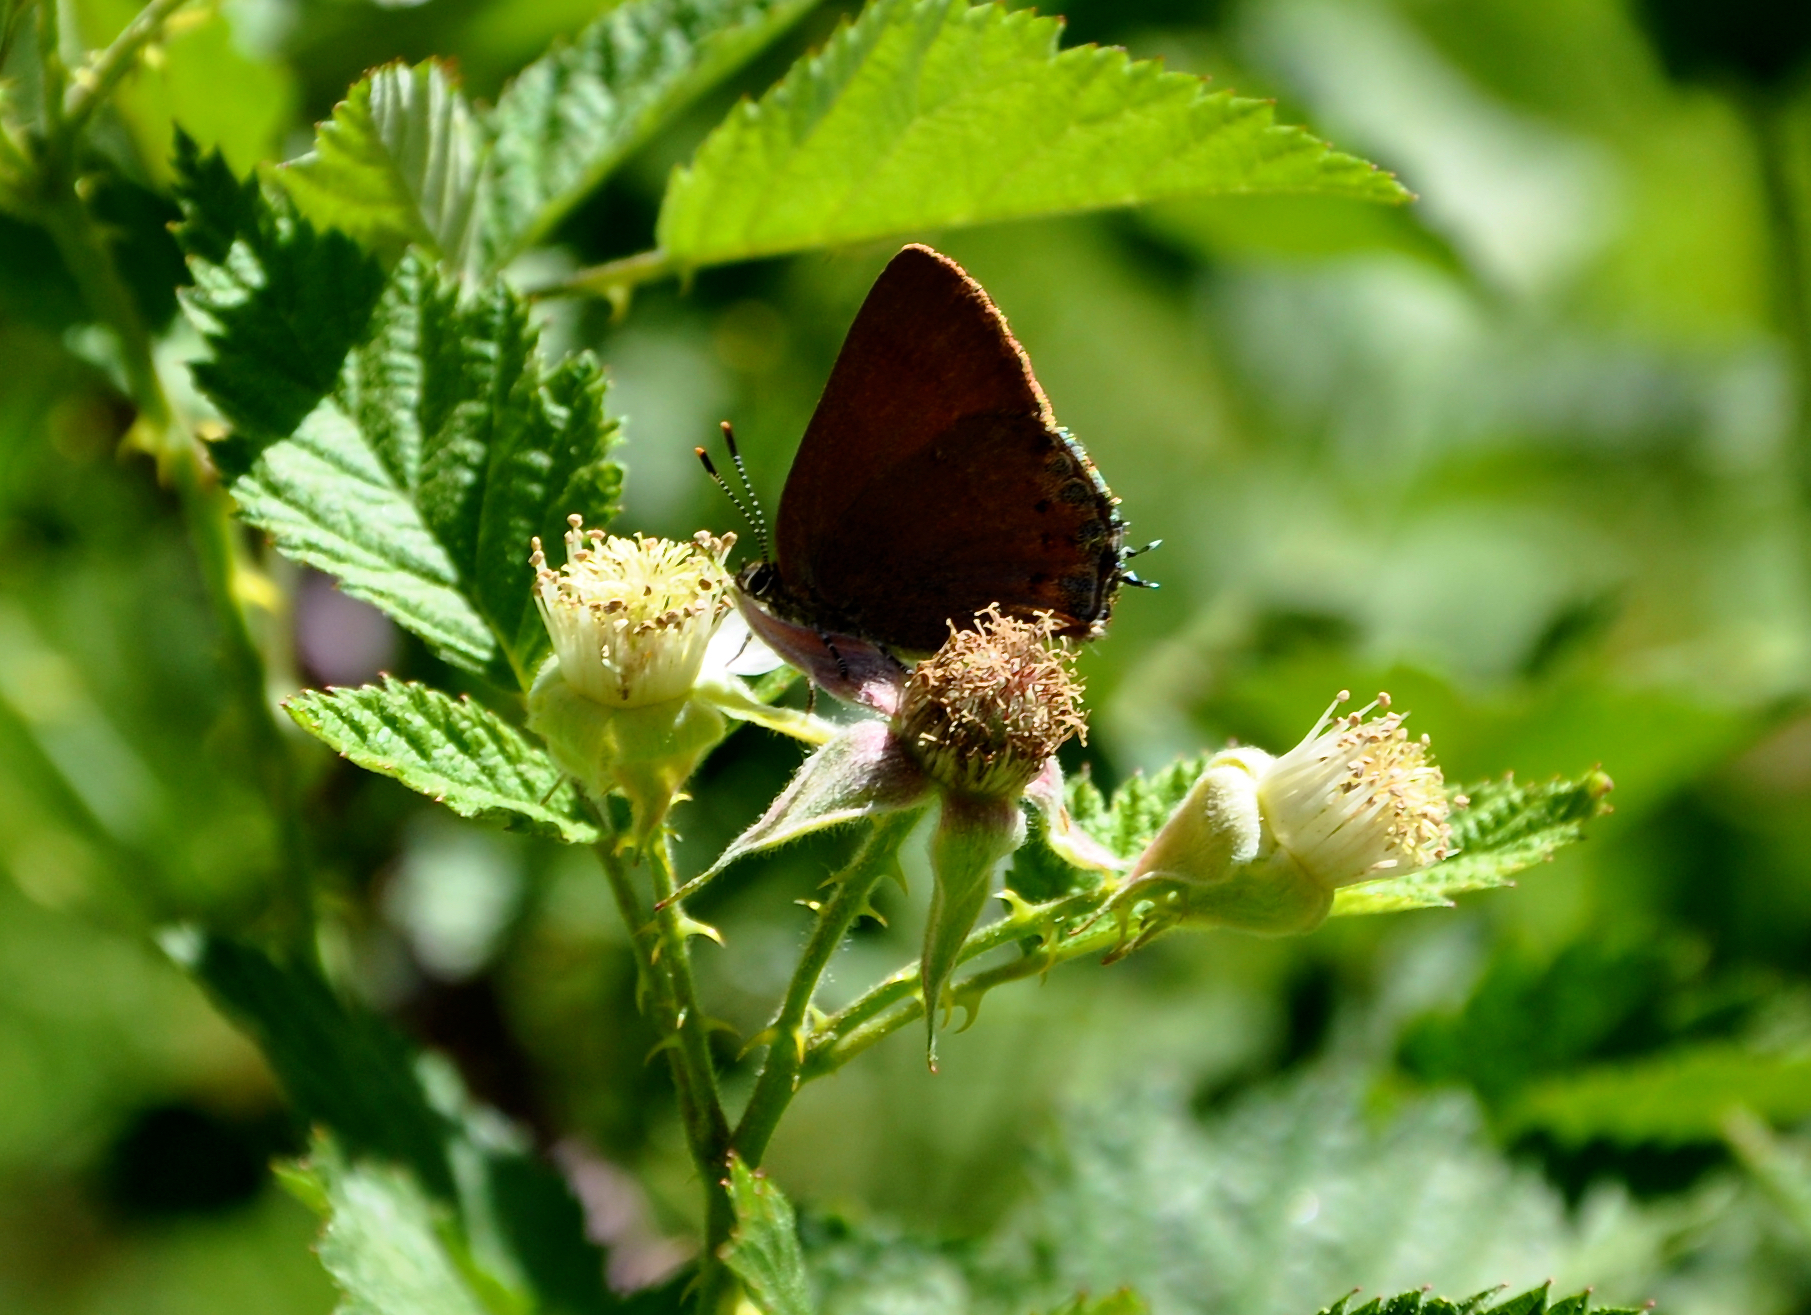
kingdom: Animalia
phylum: Arthropoda
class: Insecta
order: Lepidoptera
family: Lycaenidae
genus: Mitoura
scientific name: Mitoura nelsoni
